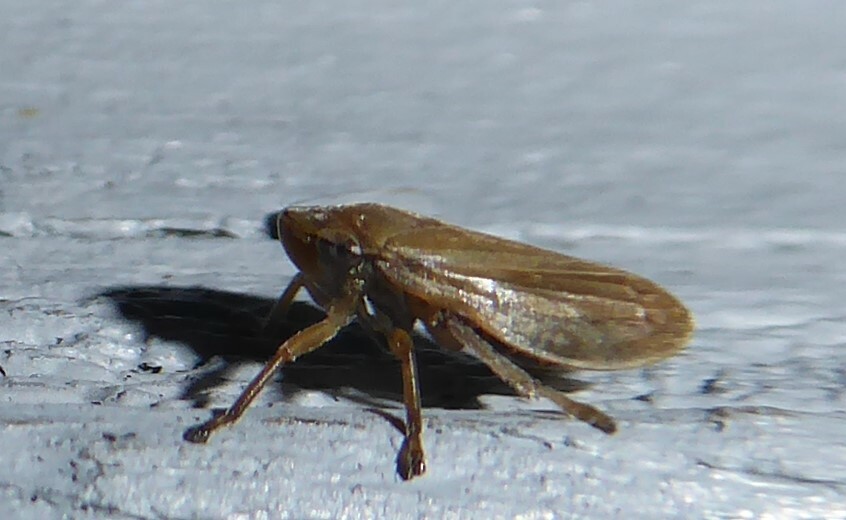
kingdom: Animalia
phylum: Arthropoda
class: Insecta
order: Hemiptera
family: Aphrophoridae
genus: Philaenus
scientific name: Philaenus spumarius
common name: Meadow spittlebug
